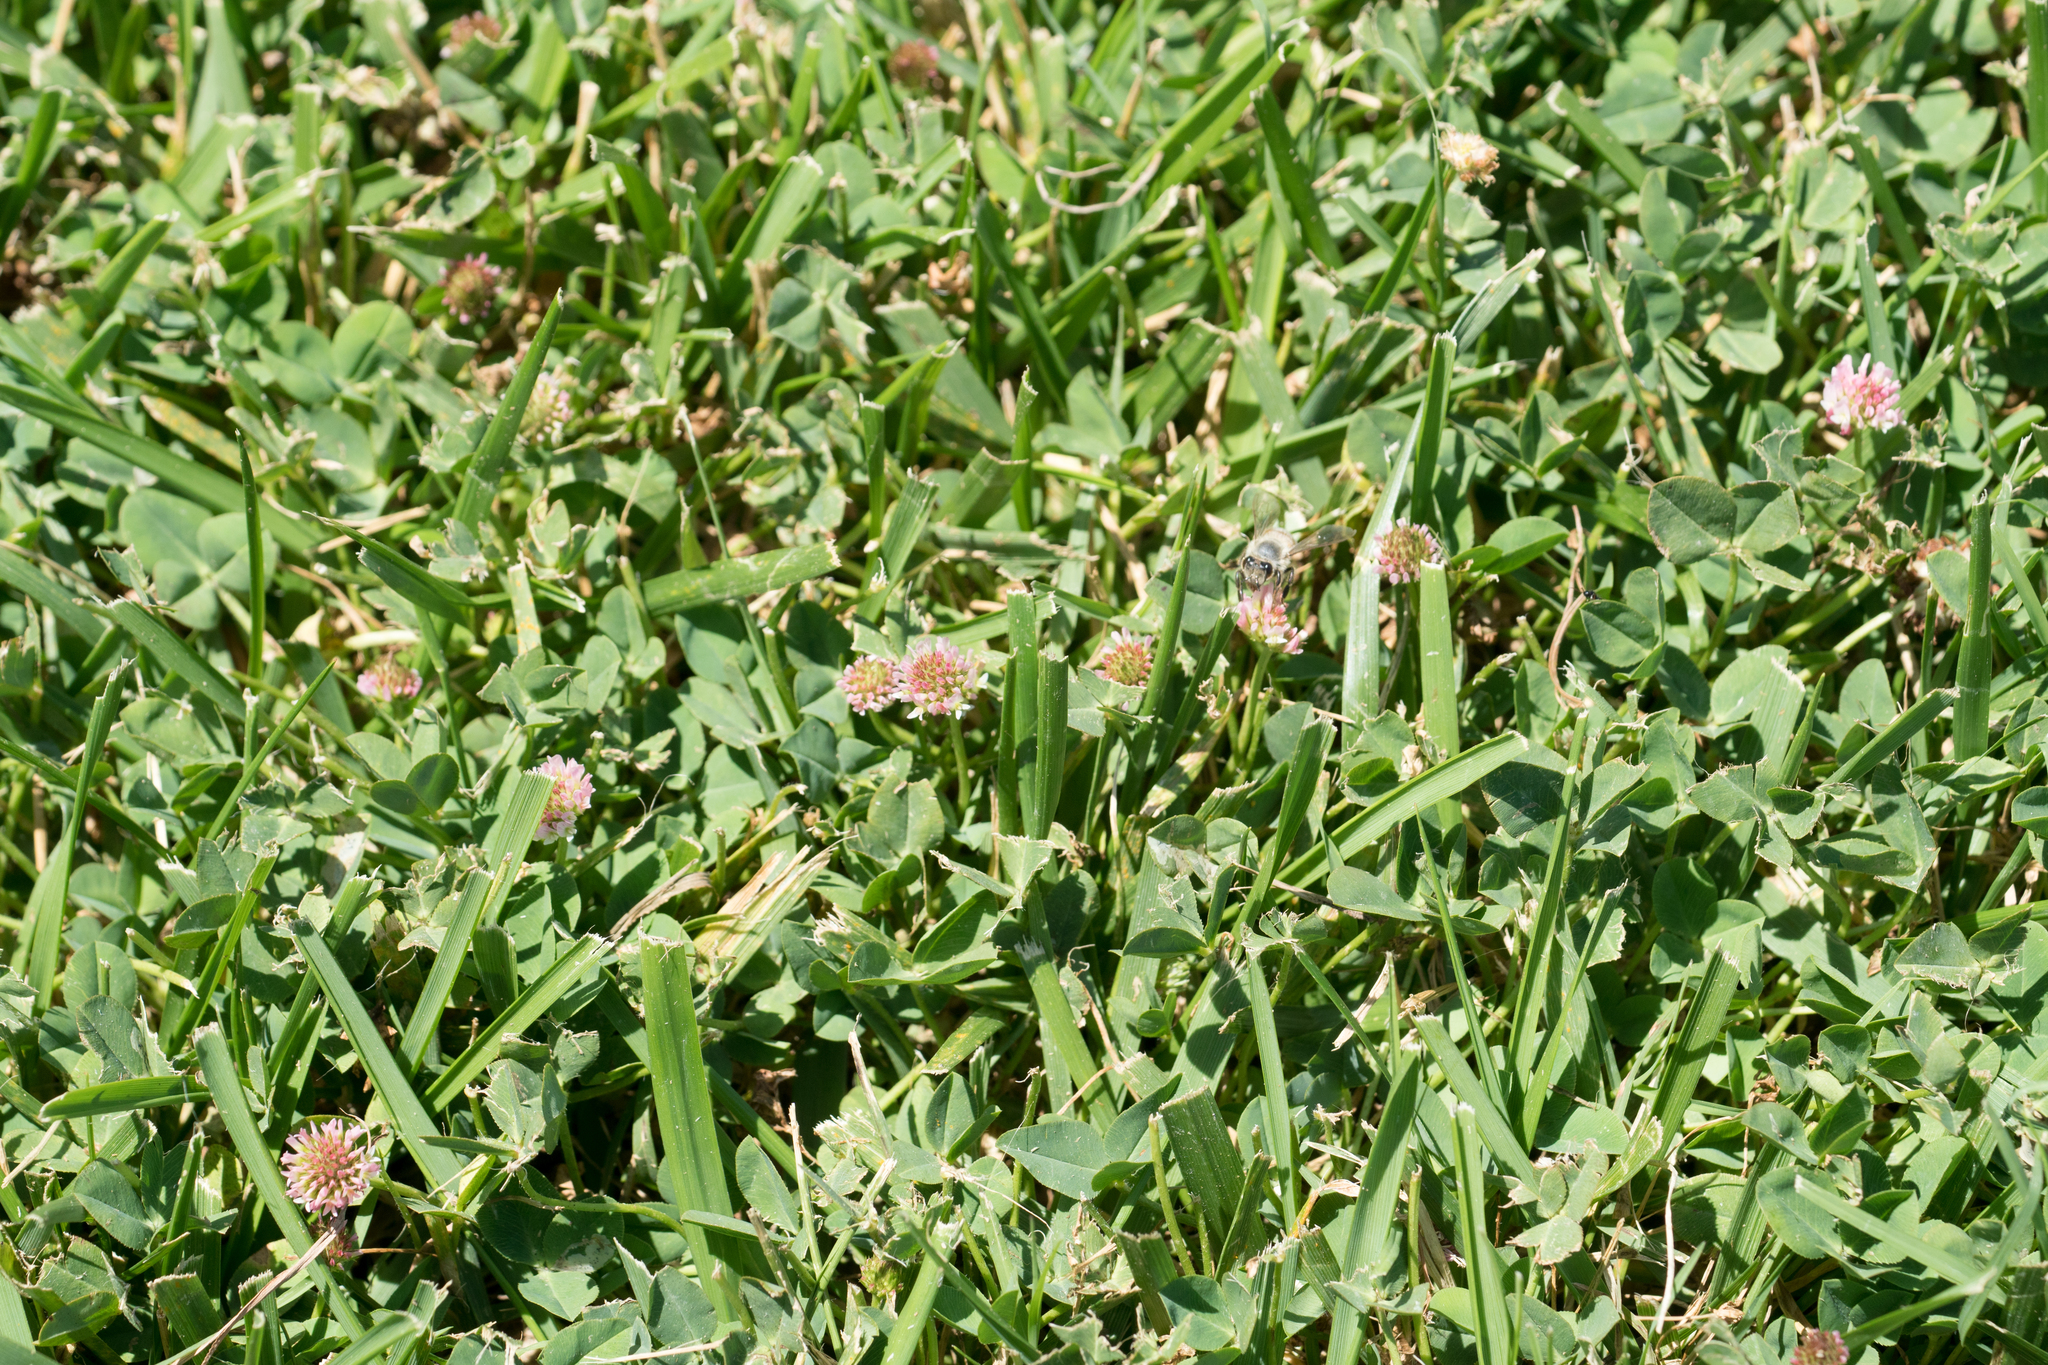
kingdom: Plantae
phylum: Tracheophyta
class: Magnoliopsida
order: Fabales
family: Fabaceae
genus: Trifolium
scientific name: Trifolium fragiferum
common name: Strawberry clover
